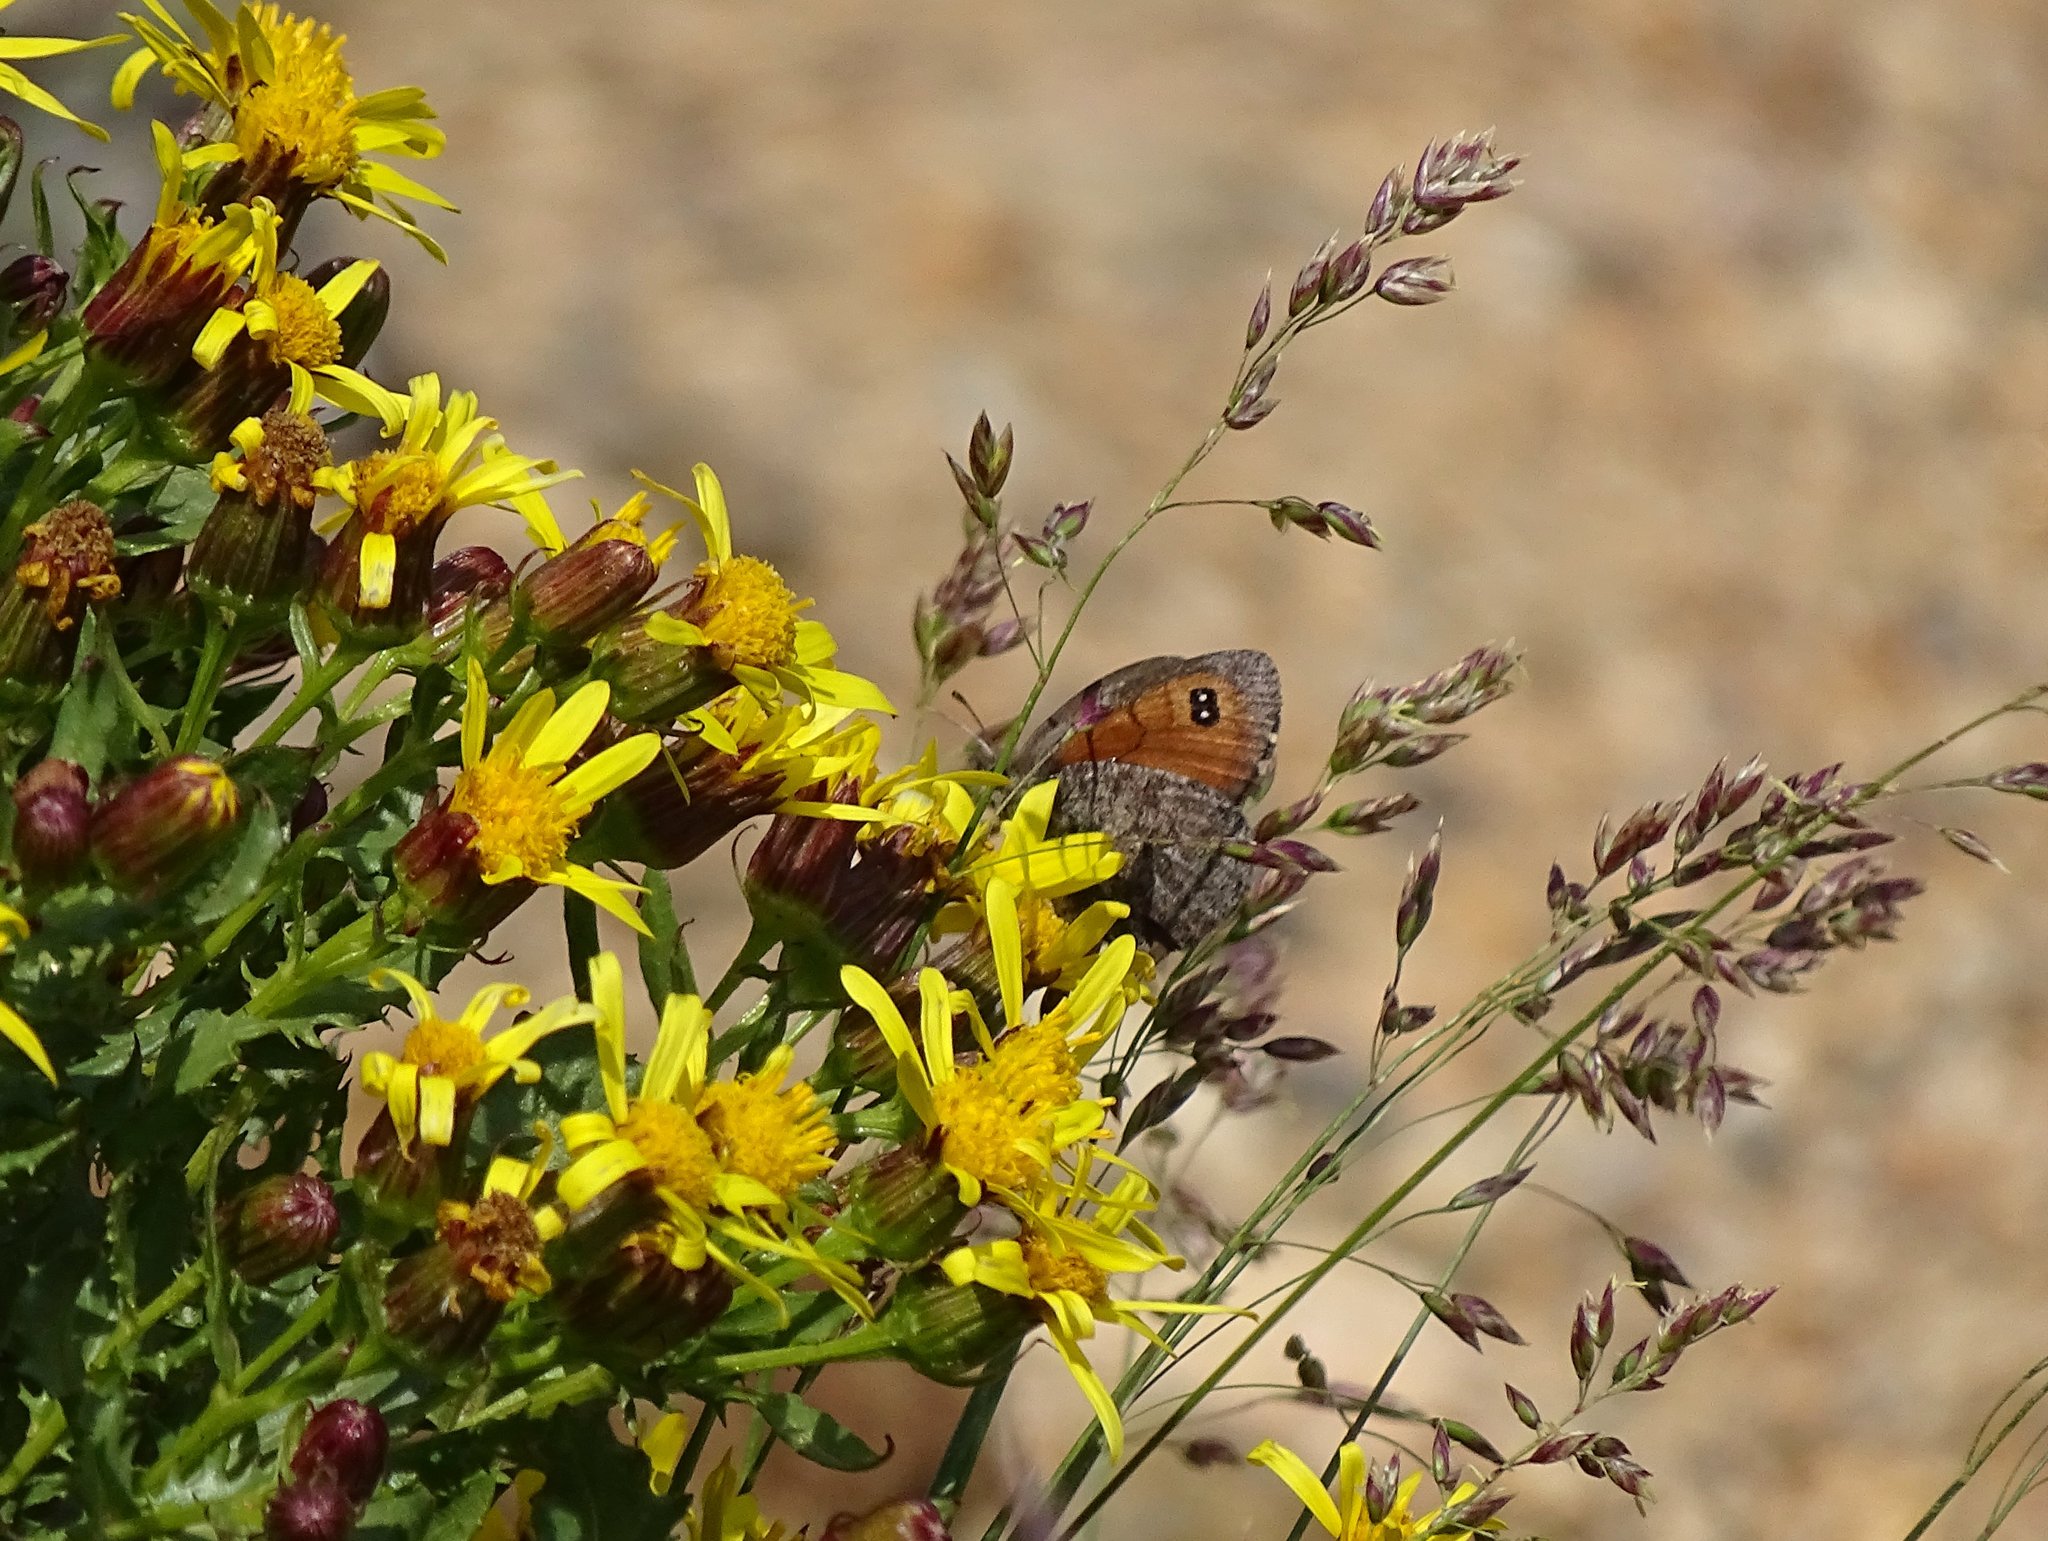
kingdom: Animalia
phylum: Arthropoda
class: Insecta
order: Lepidoptera
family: Nymphalidae
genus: Erebia
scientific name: Erebia tyndarus
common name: Swiss brassy ringlet
